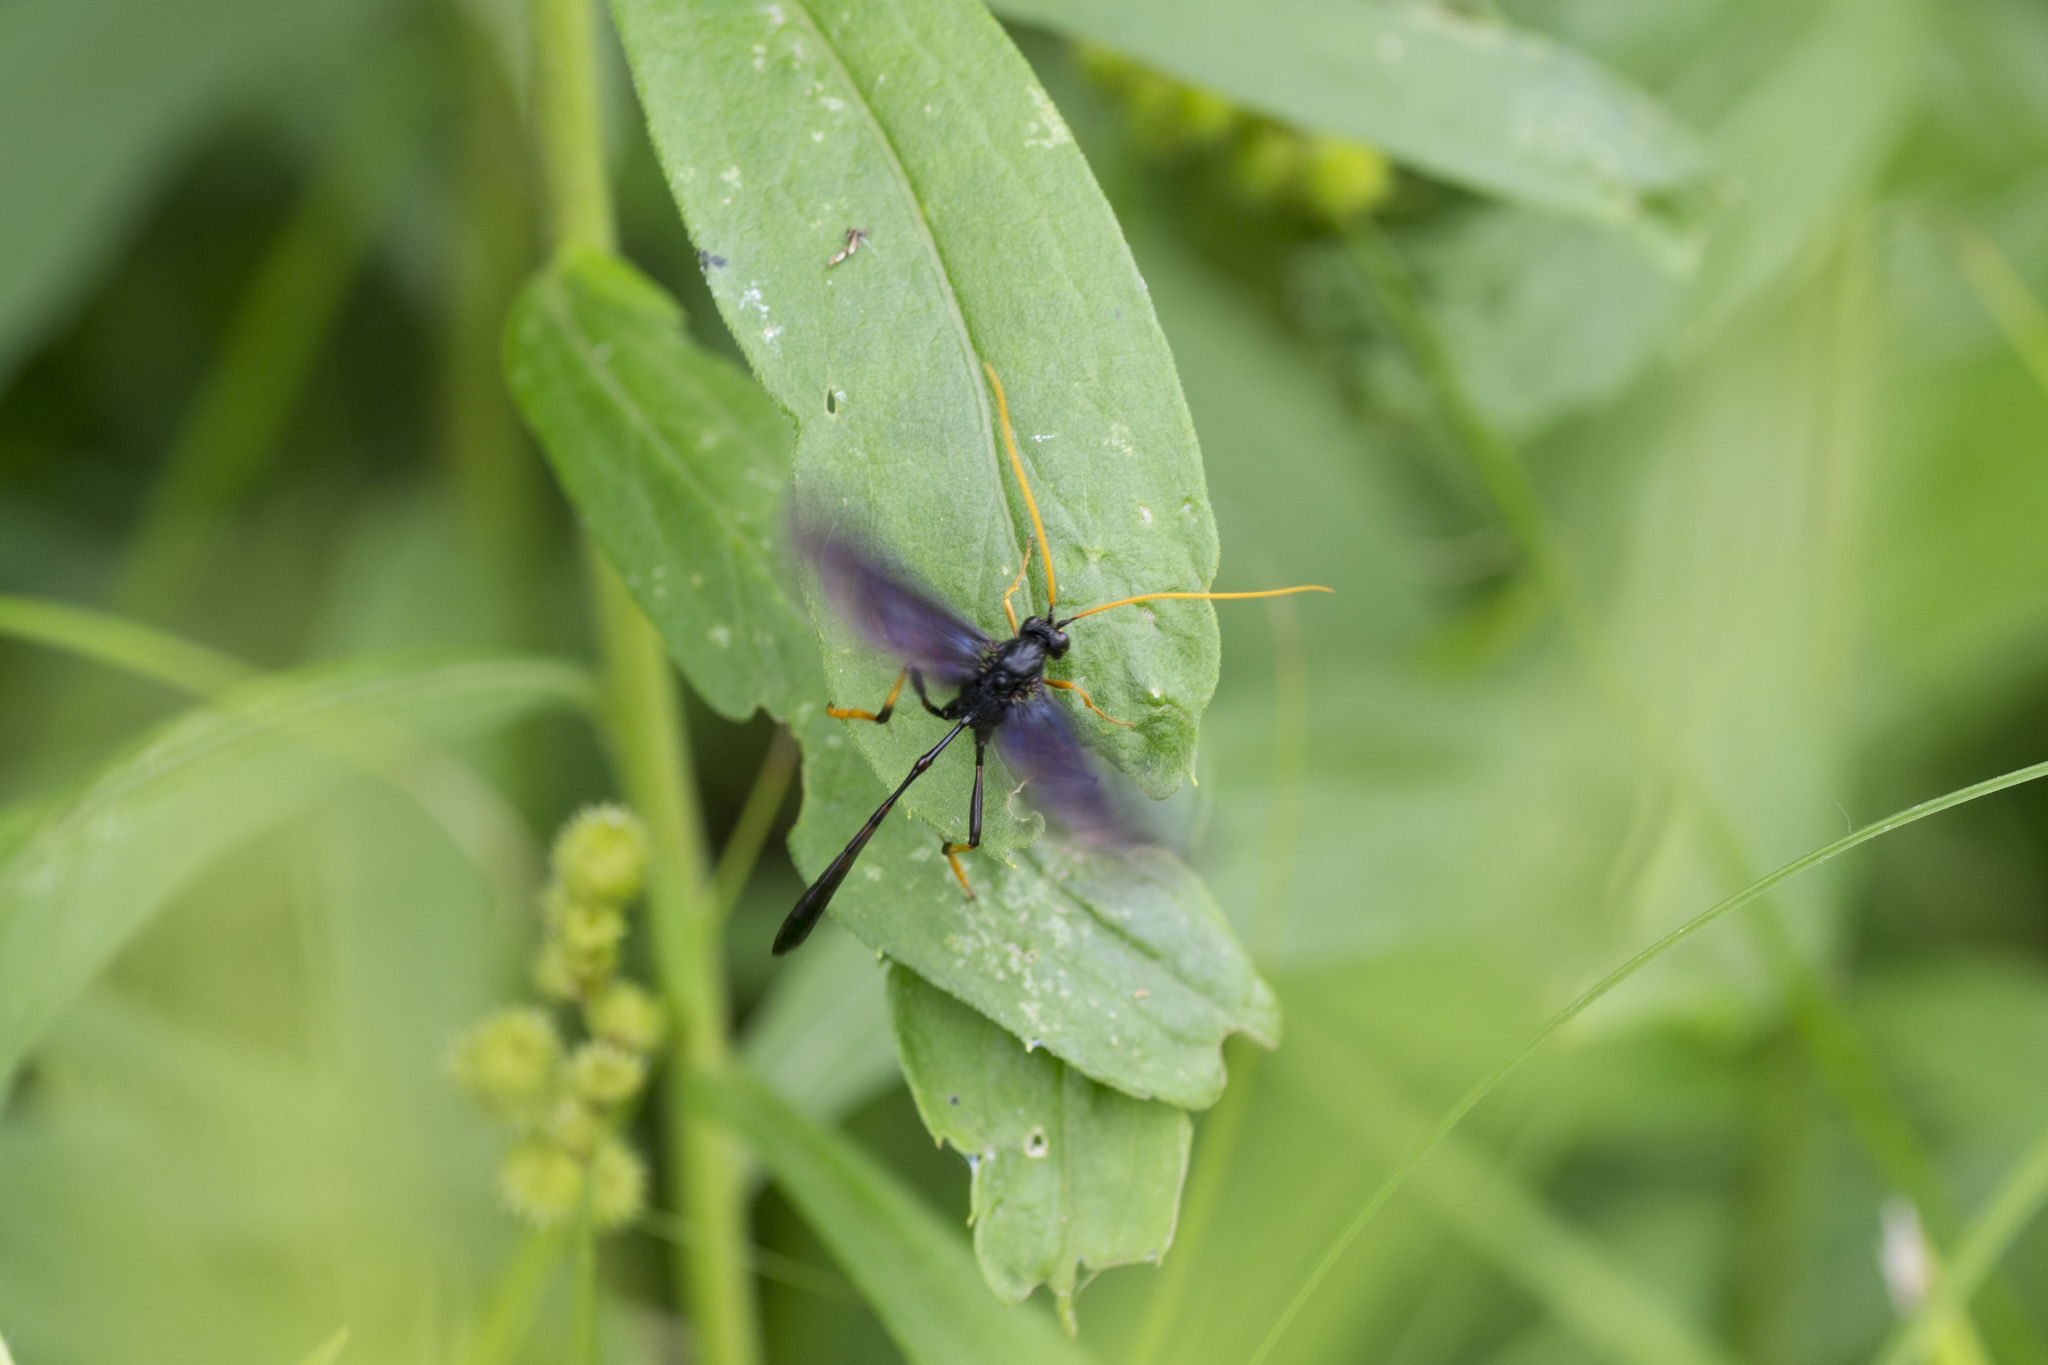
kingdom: Animalia
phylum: Arthropoda
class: Insecta
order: Hymenoptera
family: Ichneumonidae
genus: Therion
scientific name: Therion morio
